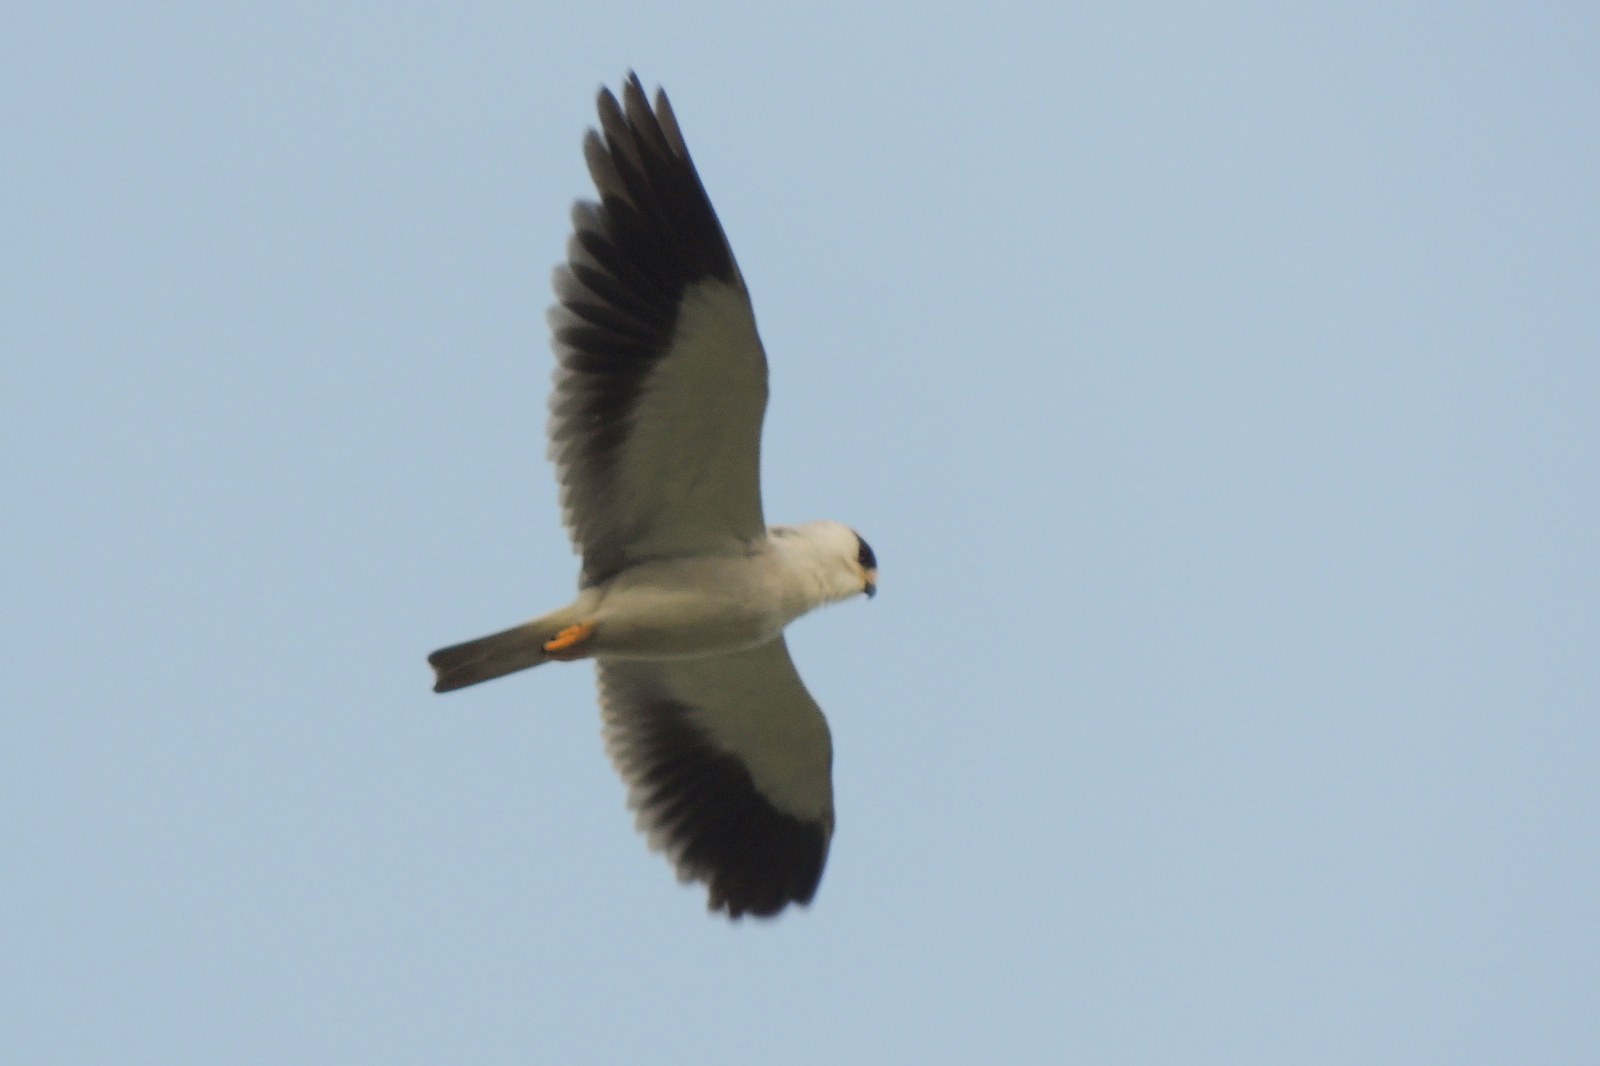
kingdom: Animalia
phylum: Chordata
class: Aves
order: Accipitriformes
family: Accipitridae
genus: Elanus
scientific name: Elanus caeruleus
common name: Black-winged kite
